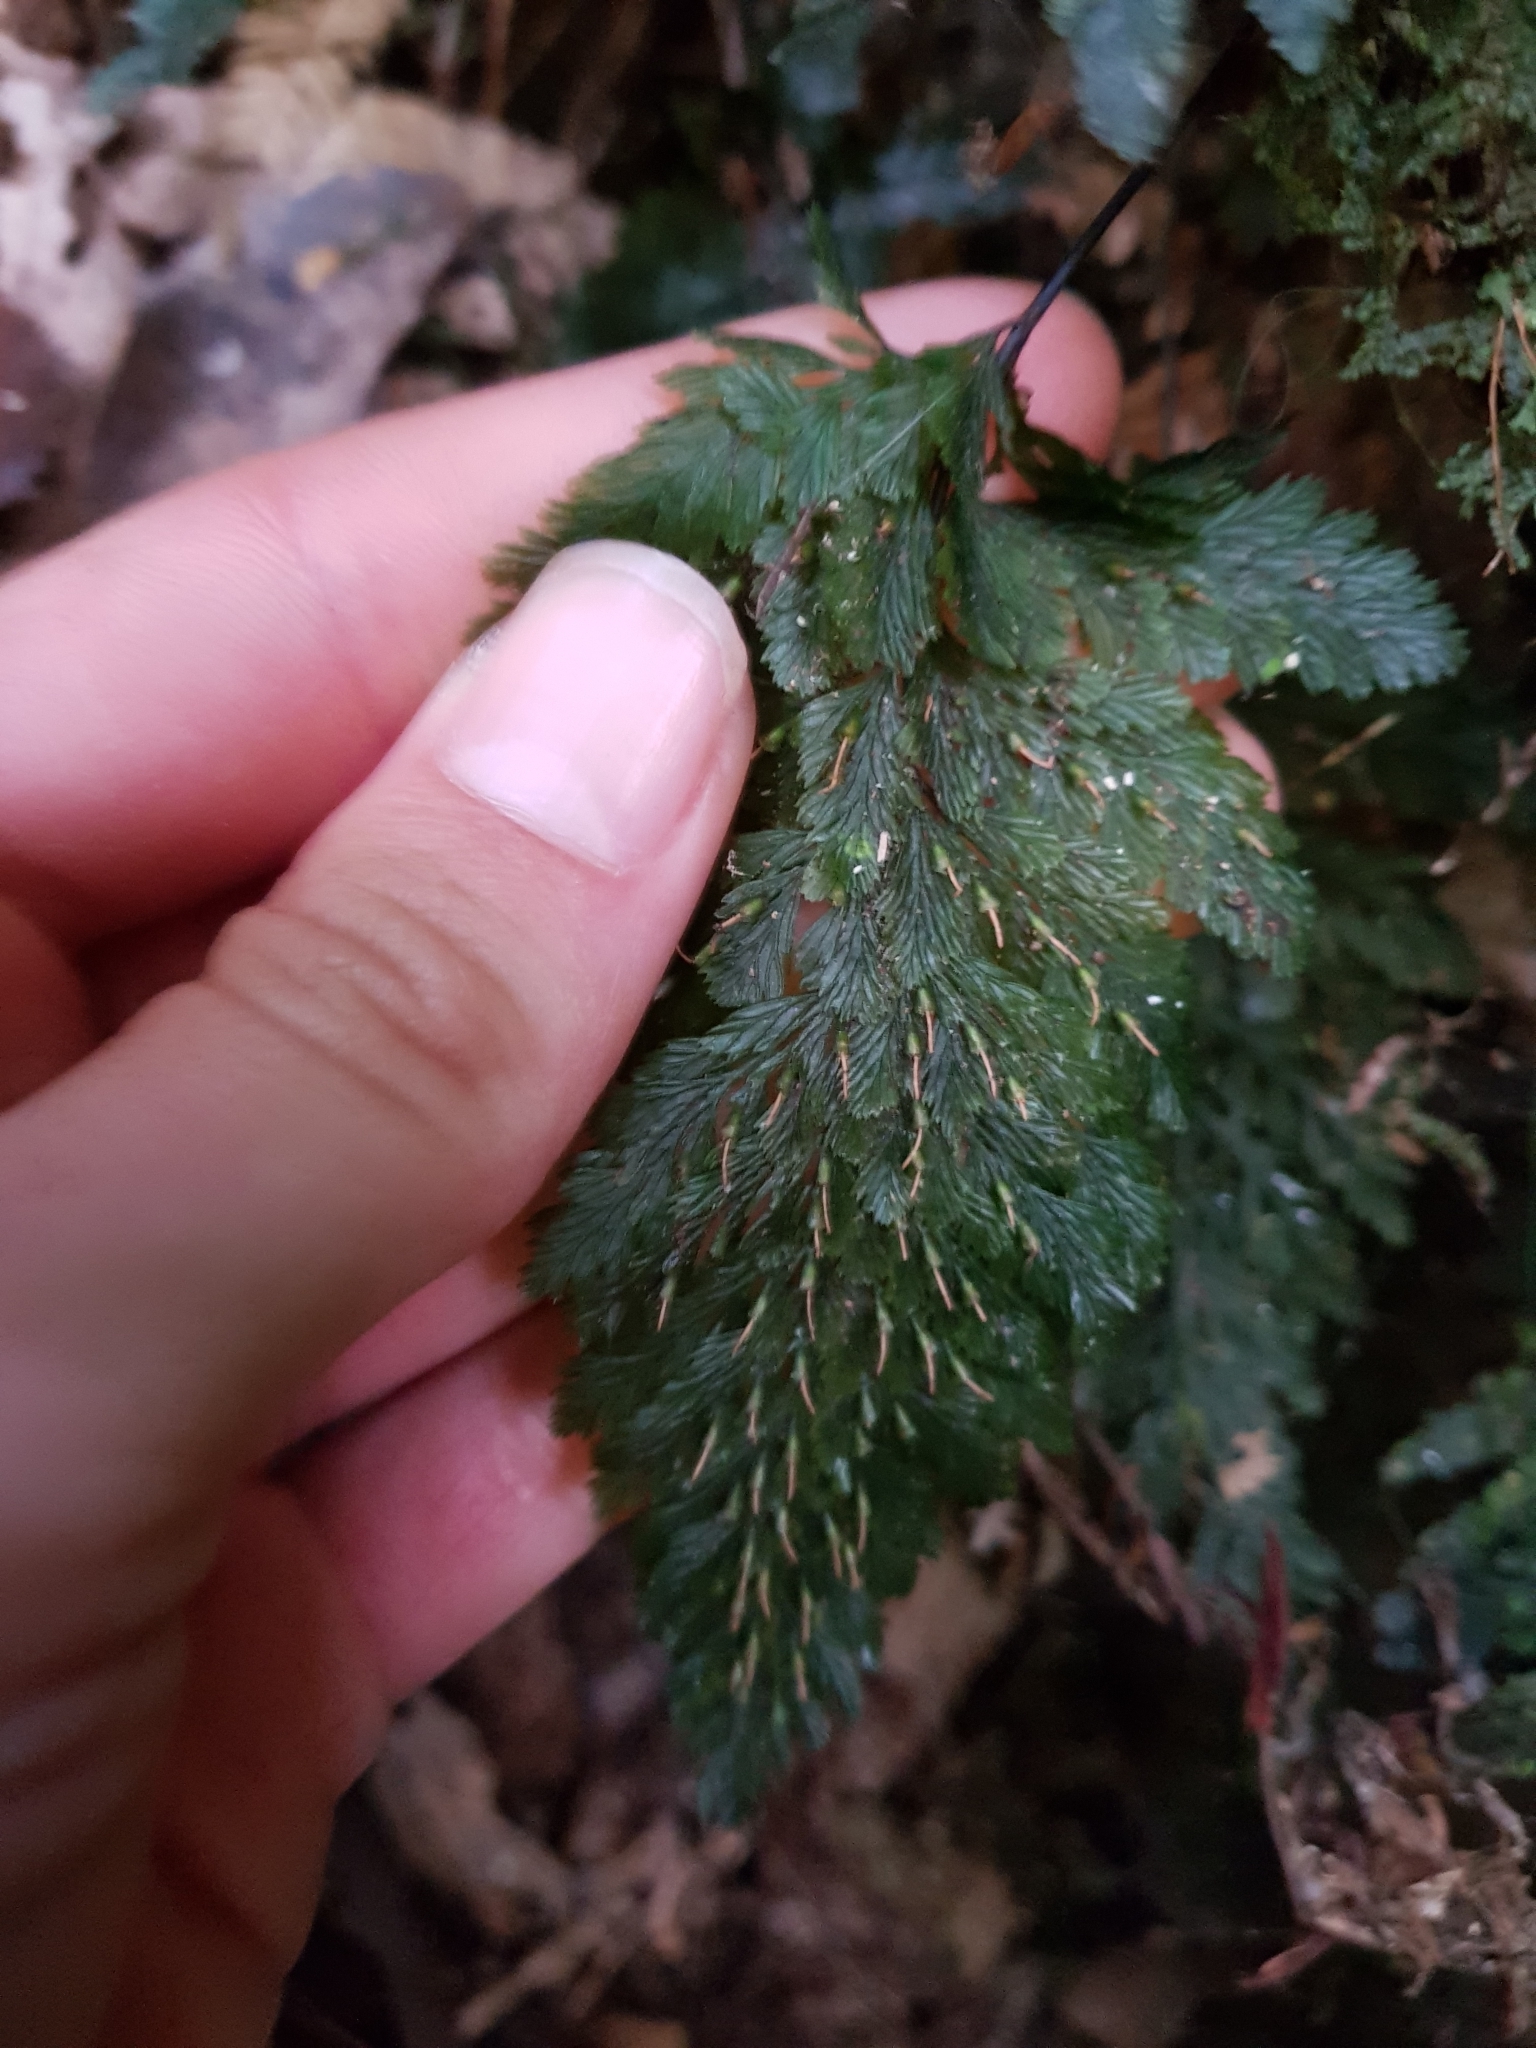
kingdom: Plantae
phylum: Tracheophyta
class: Polypodiopsida
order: Hymenophyllales
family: Hymenophyllaceae
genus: Abrodictyum
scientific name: Abrodictyum elongatum
